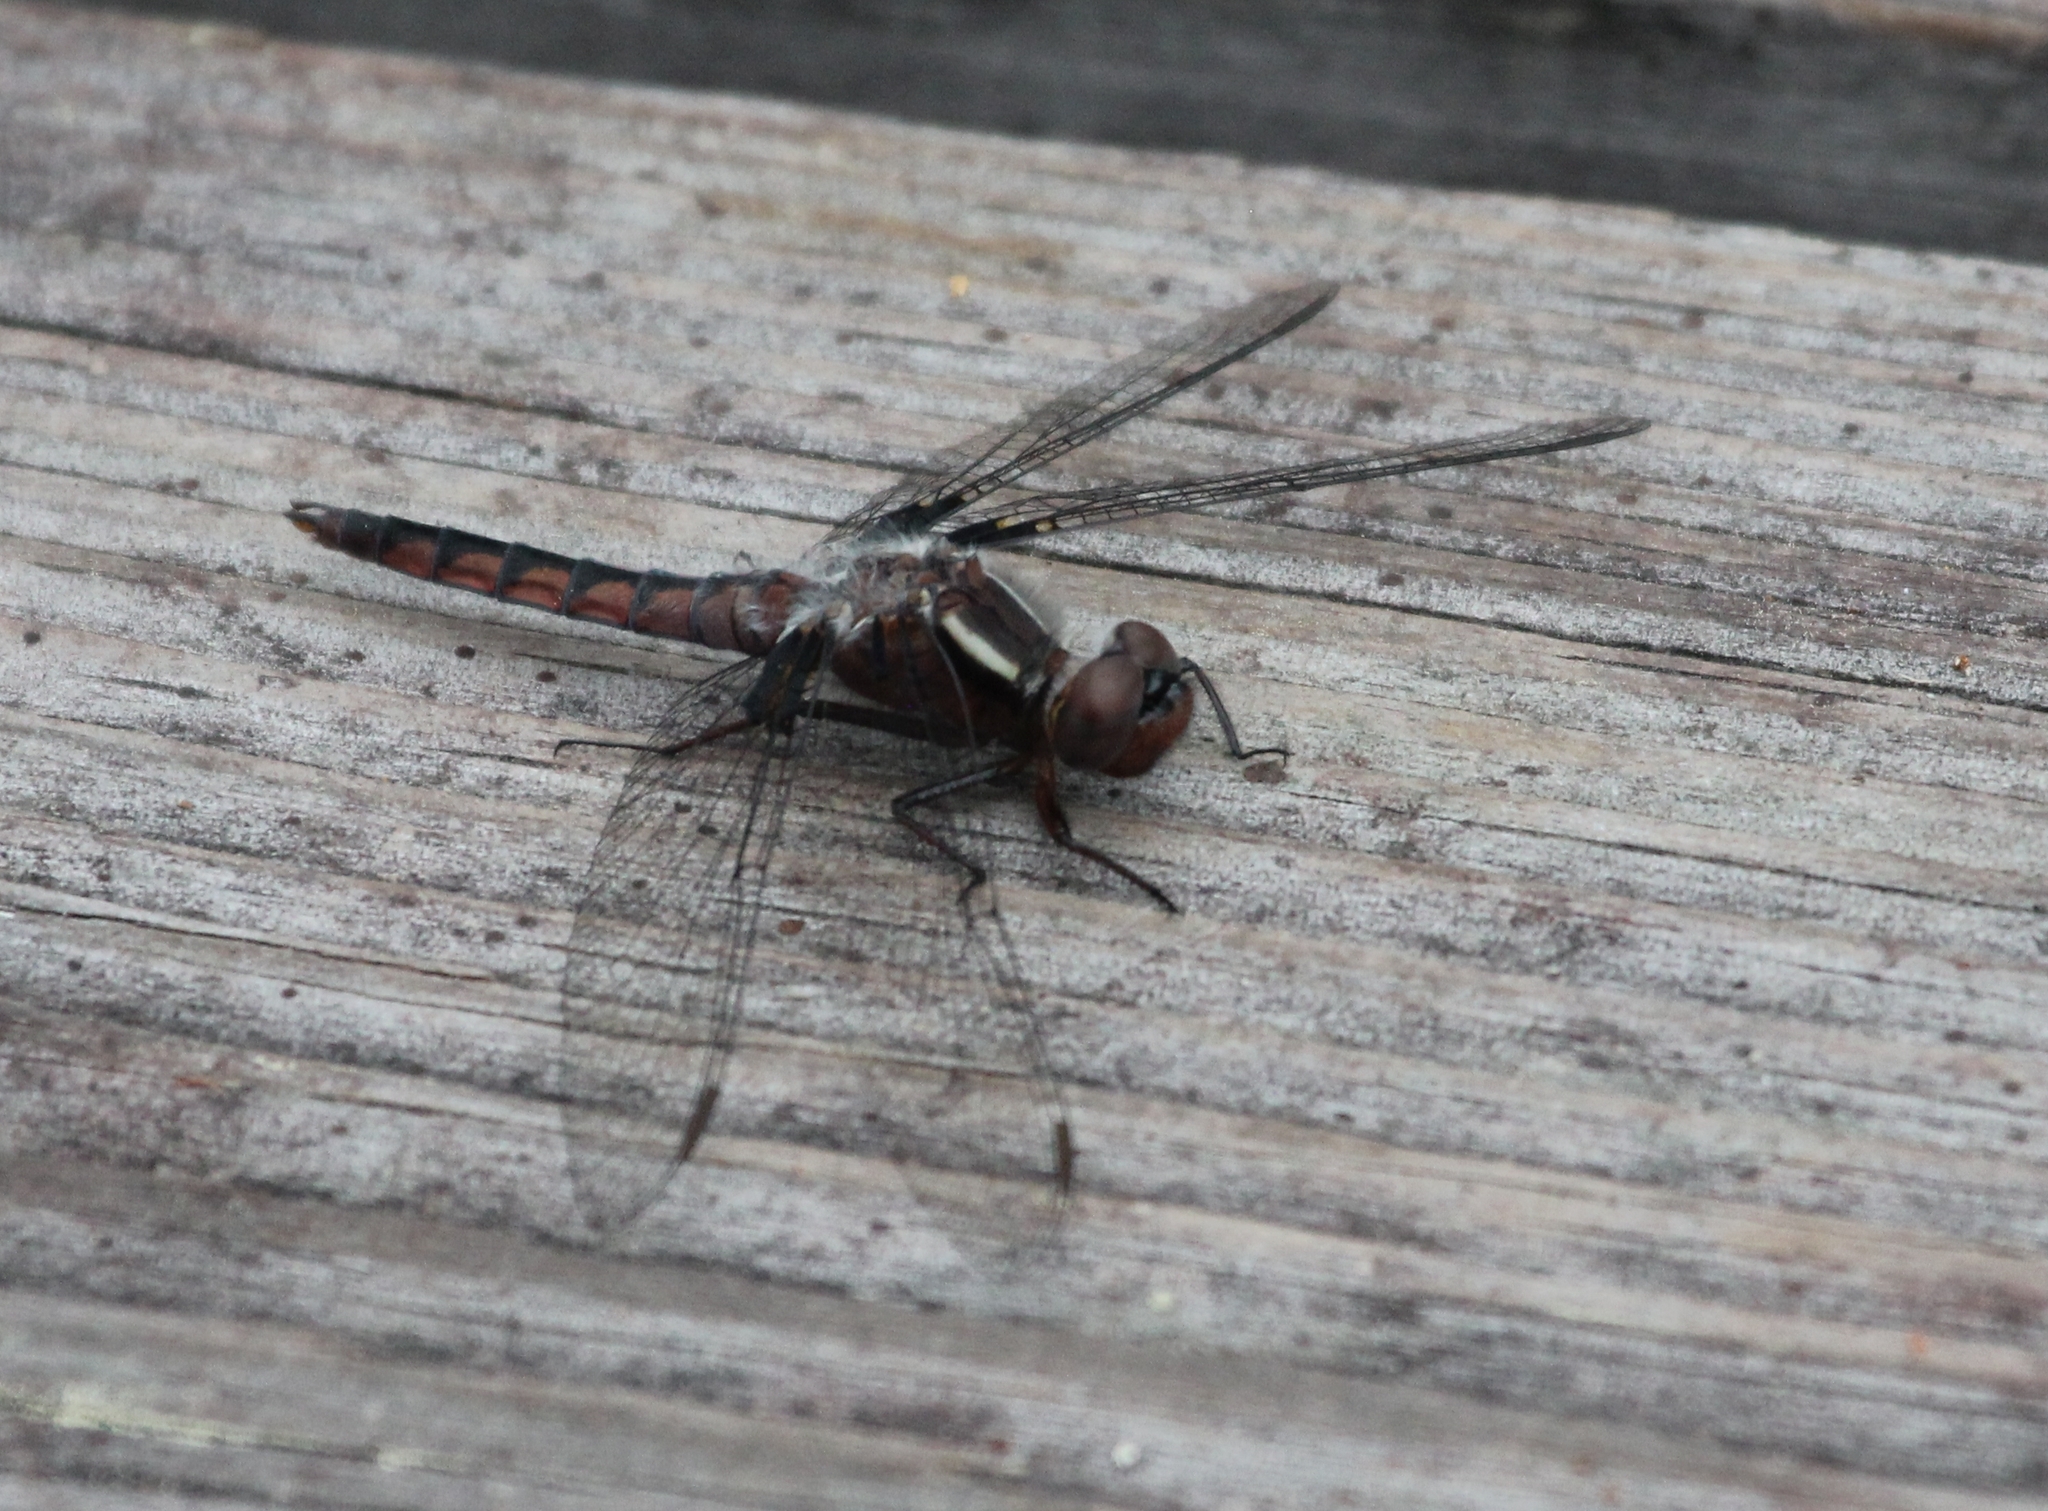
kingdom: Animalia
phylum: Arthropoda
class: Insecta
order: Odonata
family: Libellulidae
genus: Ladona
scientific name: Ladona deplanata
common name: Blue corporal
